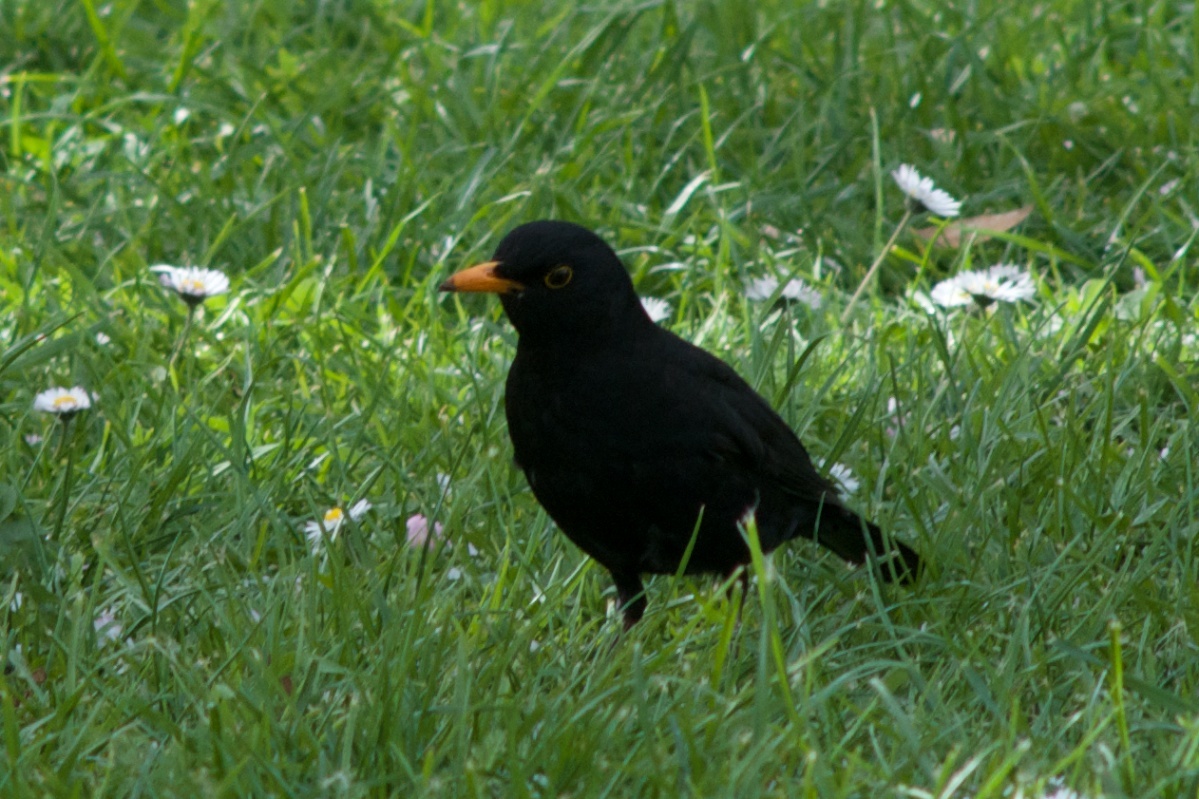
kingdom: Animalia
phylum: Chordata
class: Aves
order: Passeriformes
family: Turdidae
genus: Turdus
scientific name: Turdus merula
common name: Common blackbird
